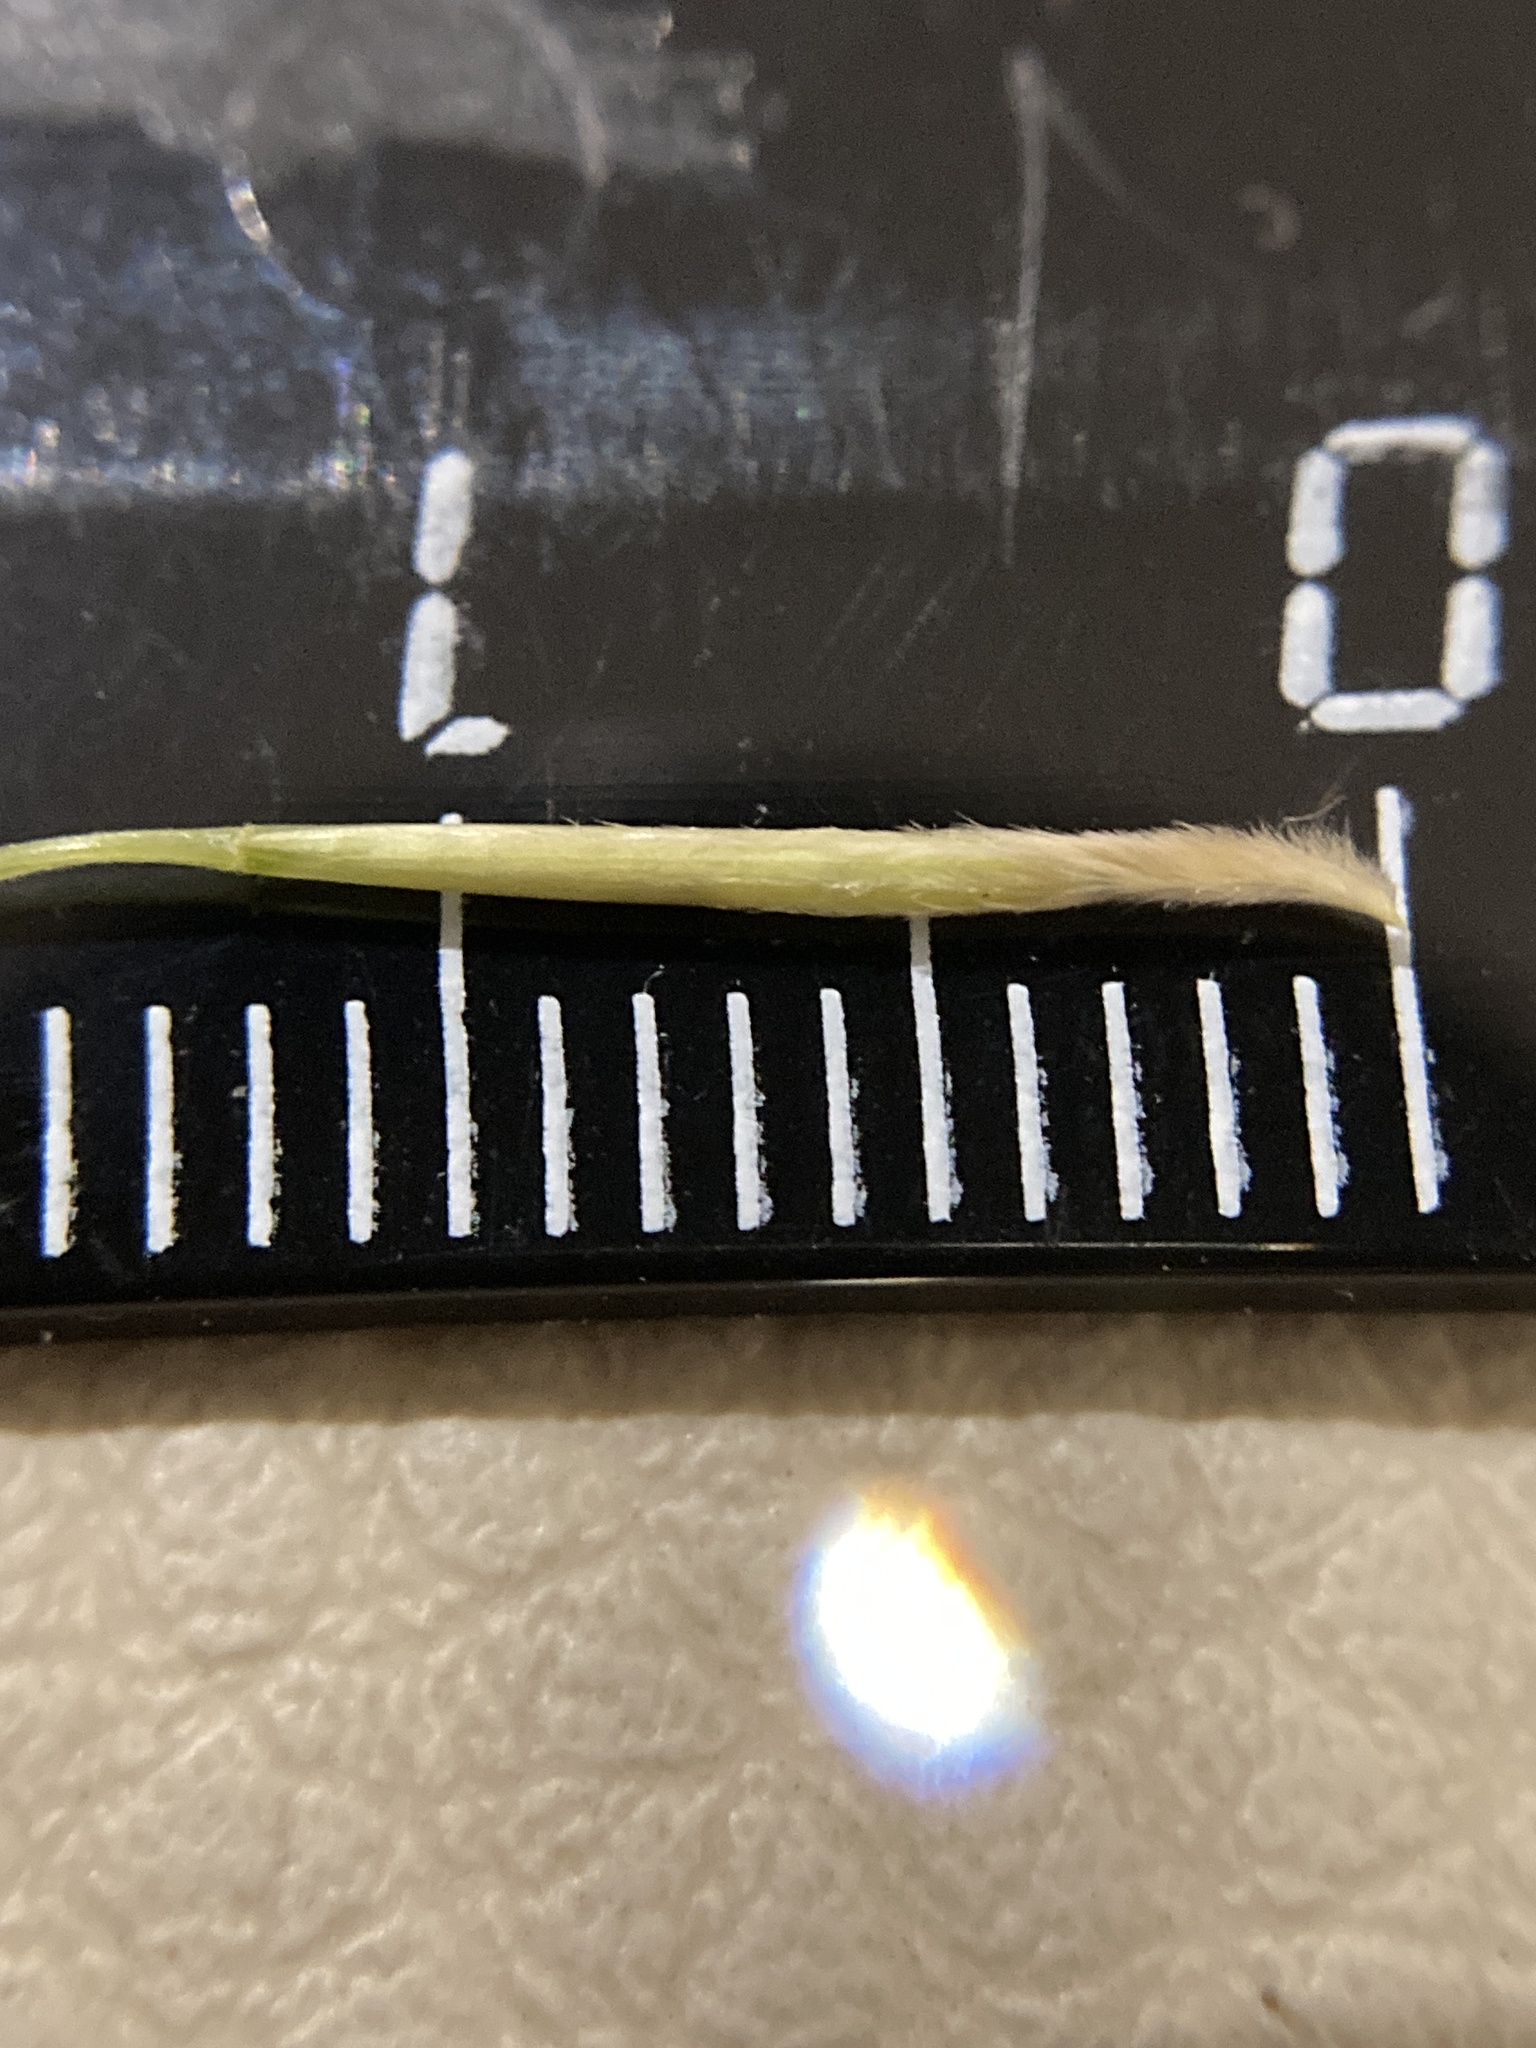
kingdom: Plantae
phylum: Tracheophyta
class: Liliopsida
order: Poales
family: Poaceae
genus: Stipa
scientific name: Stipa capillata
